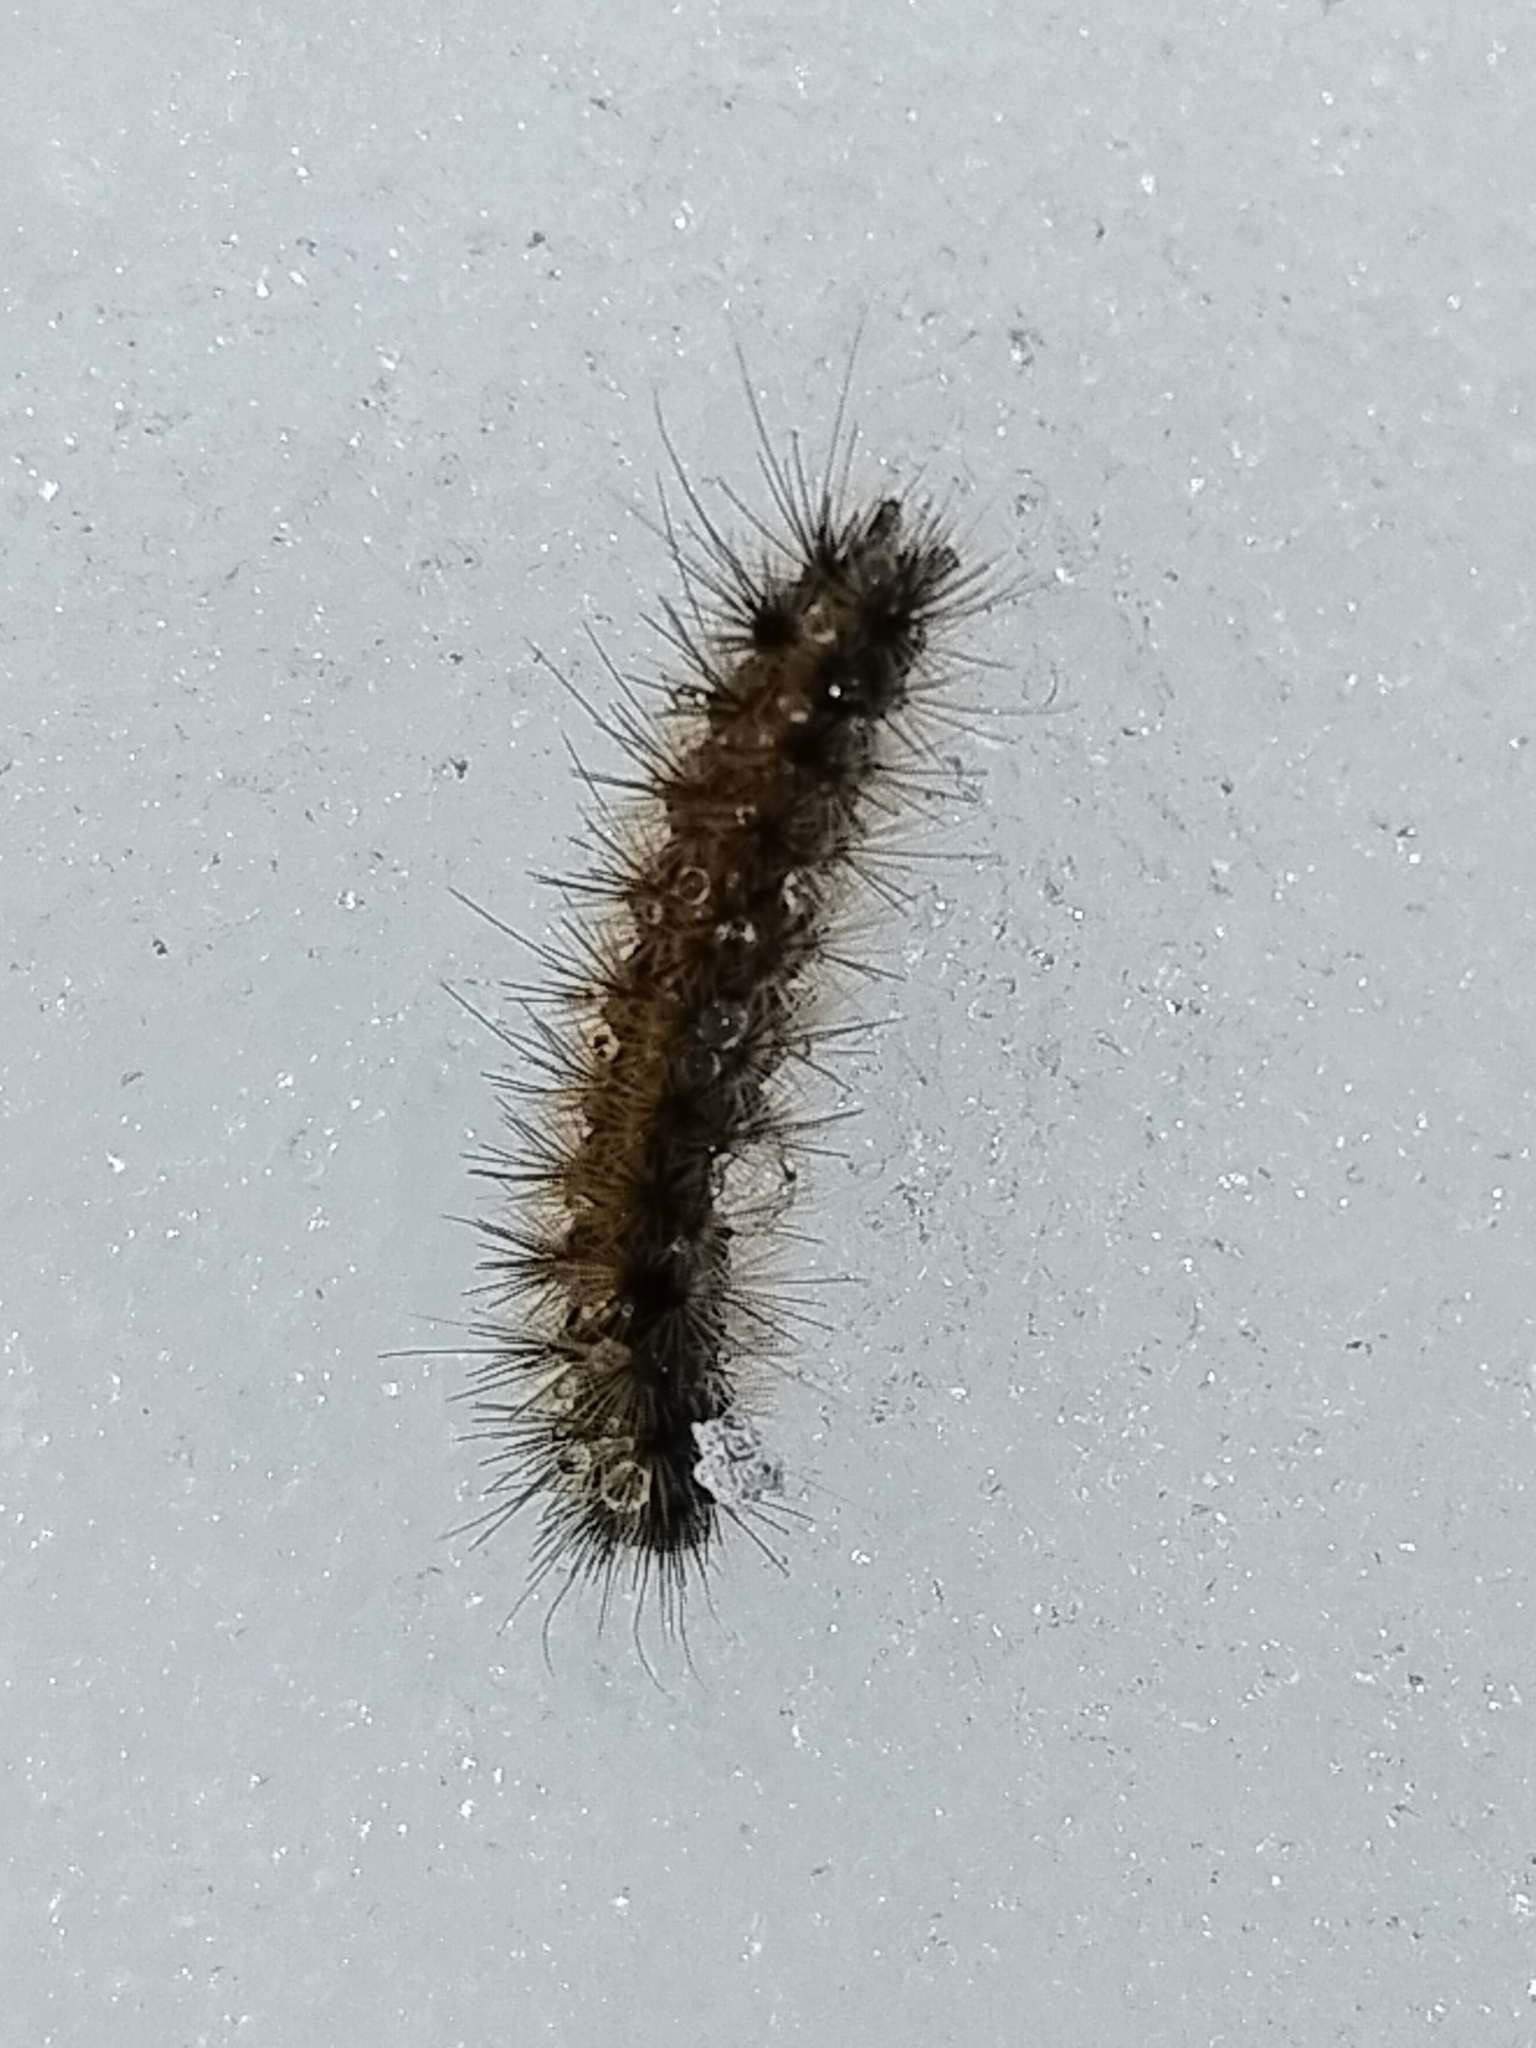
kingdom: Animalia
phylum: Arthropoda
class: Insecta
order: Lepidoptera
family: Erebidae
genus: Phragmatobia
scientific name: Phragmatobia fuliginosa
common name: Ruby tiger
